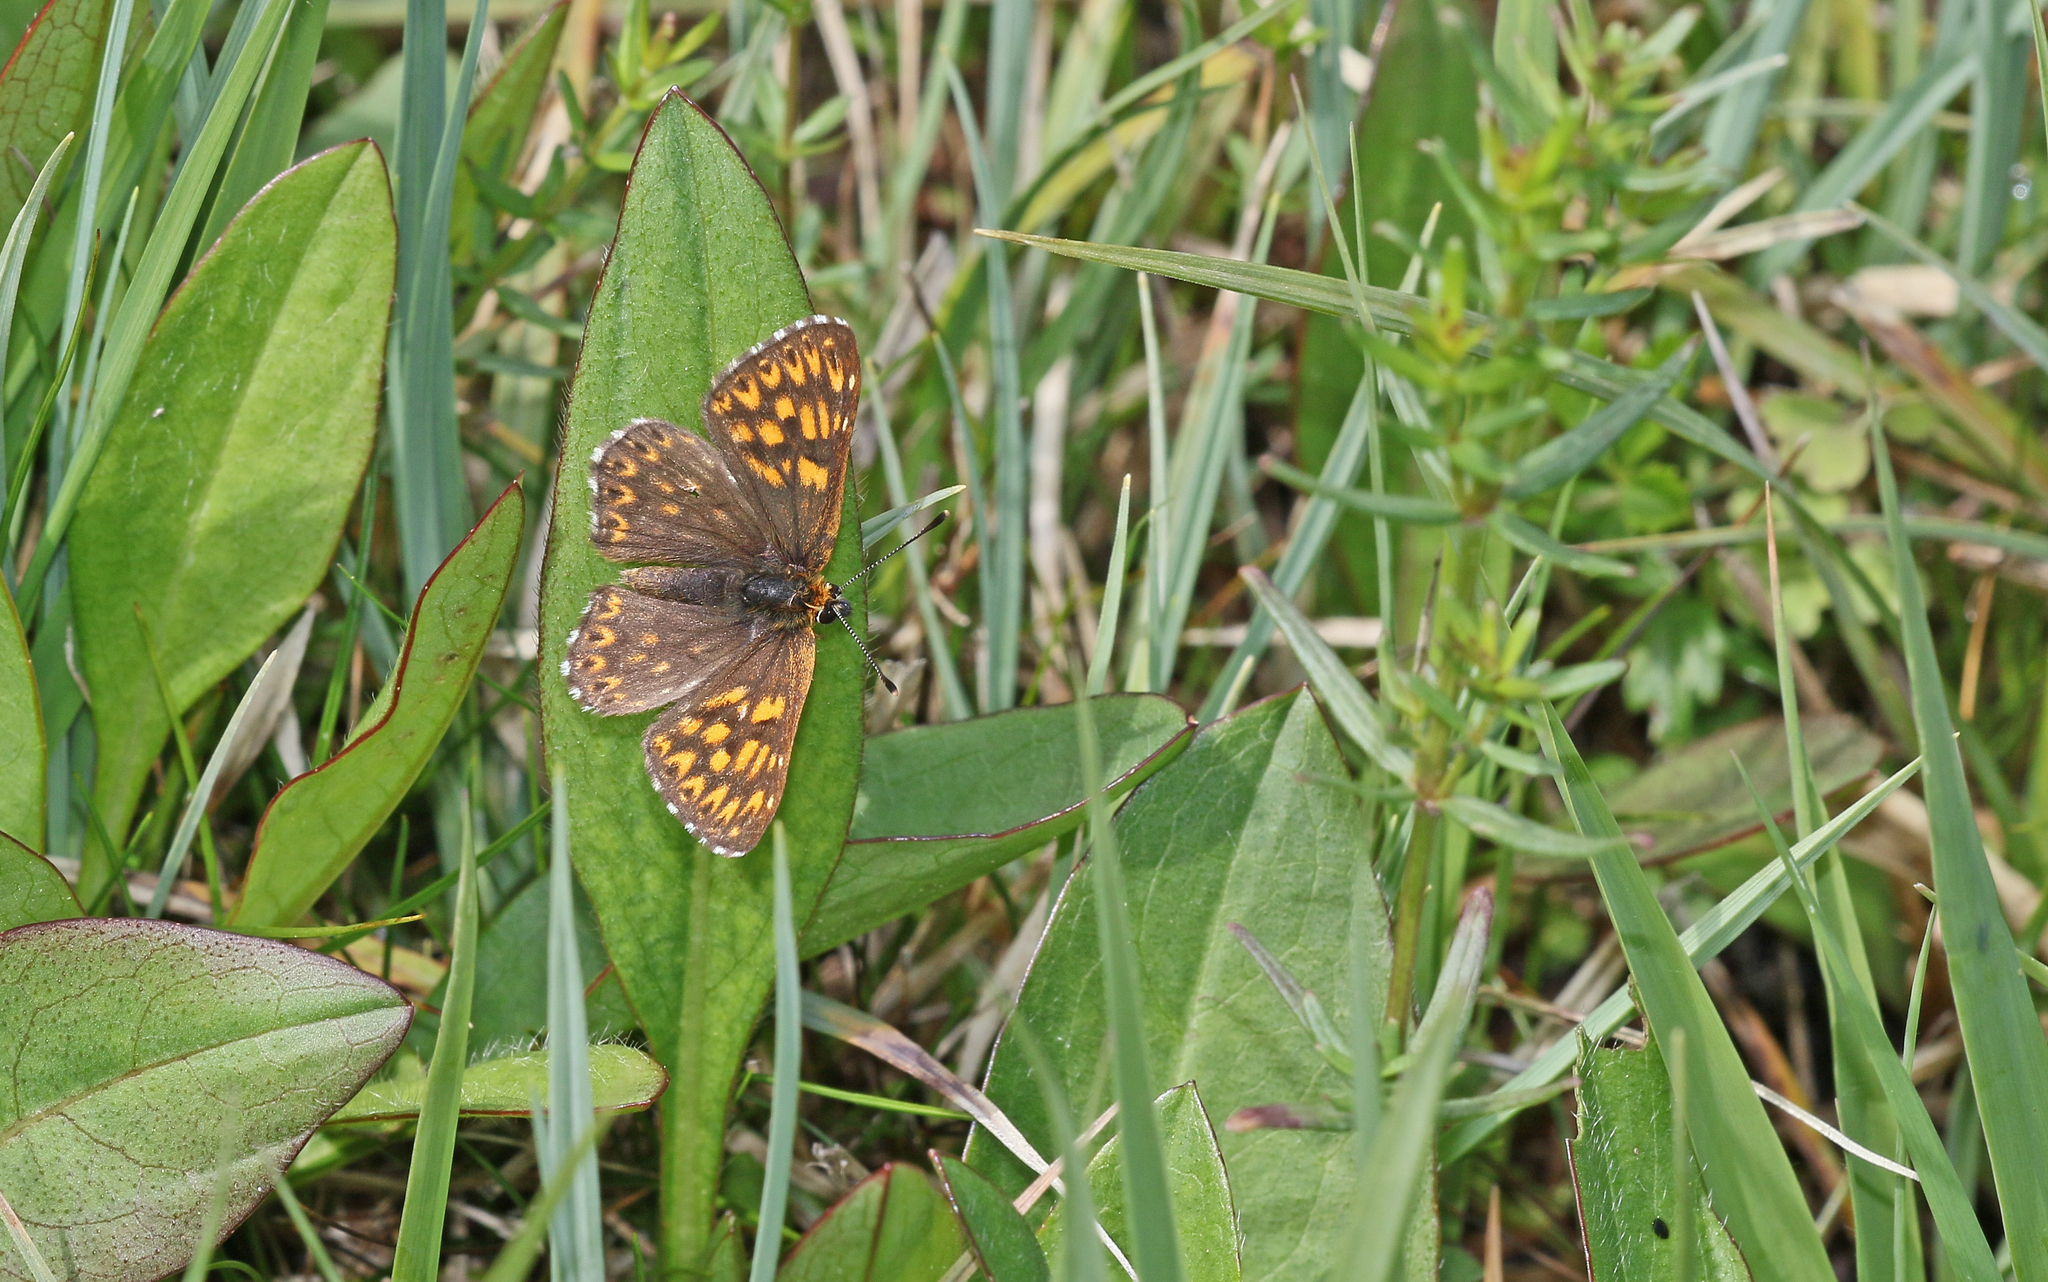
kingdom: Animalia
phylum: Arthropoda
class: Insecta
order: Lepidoptera
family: Riodinidae
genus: Hamearis
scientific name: Hamearis lucina
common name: Duke of burgundy fritillary
